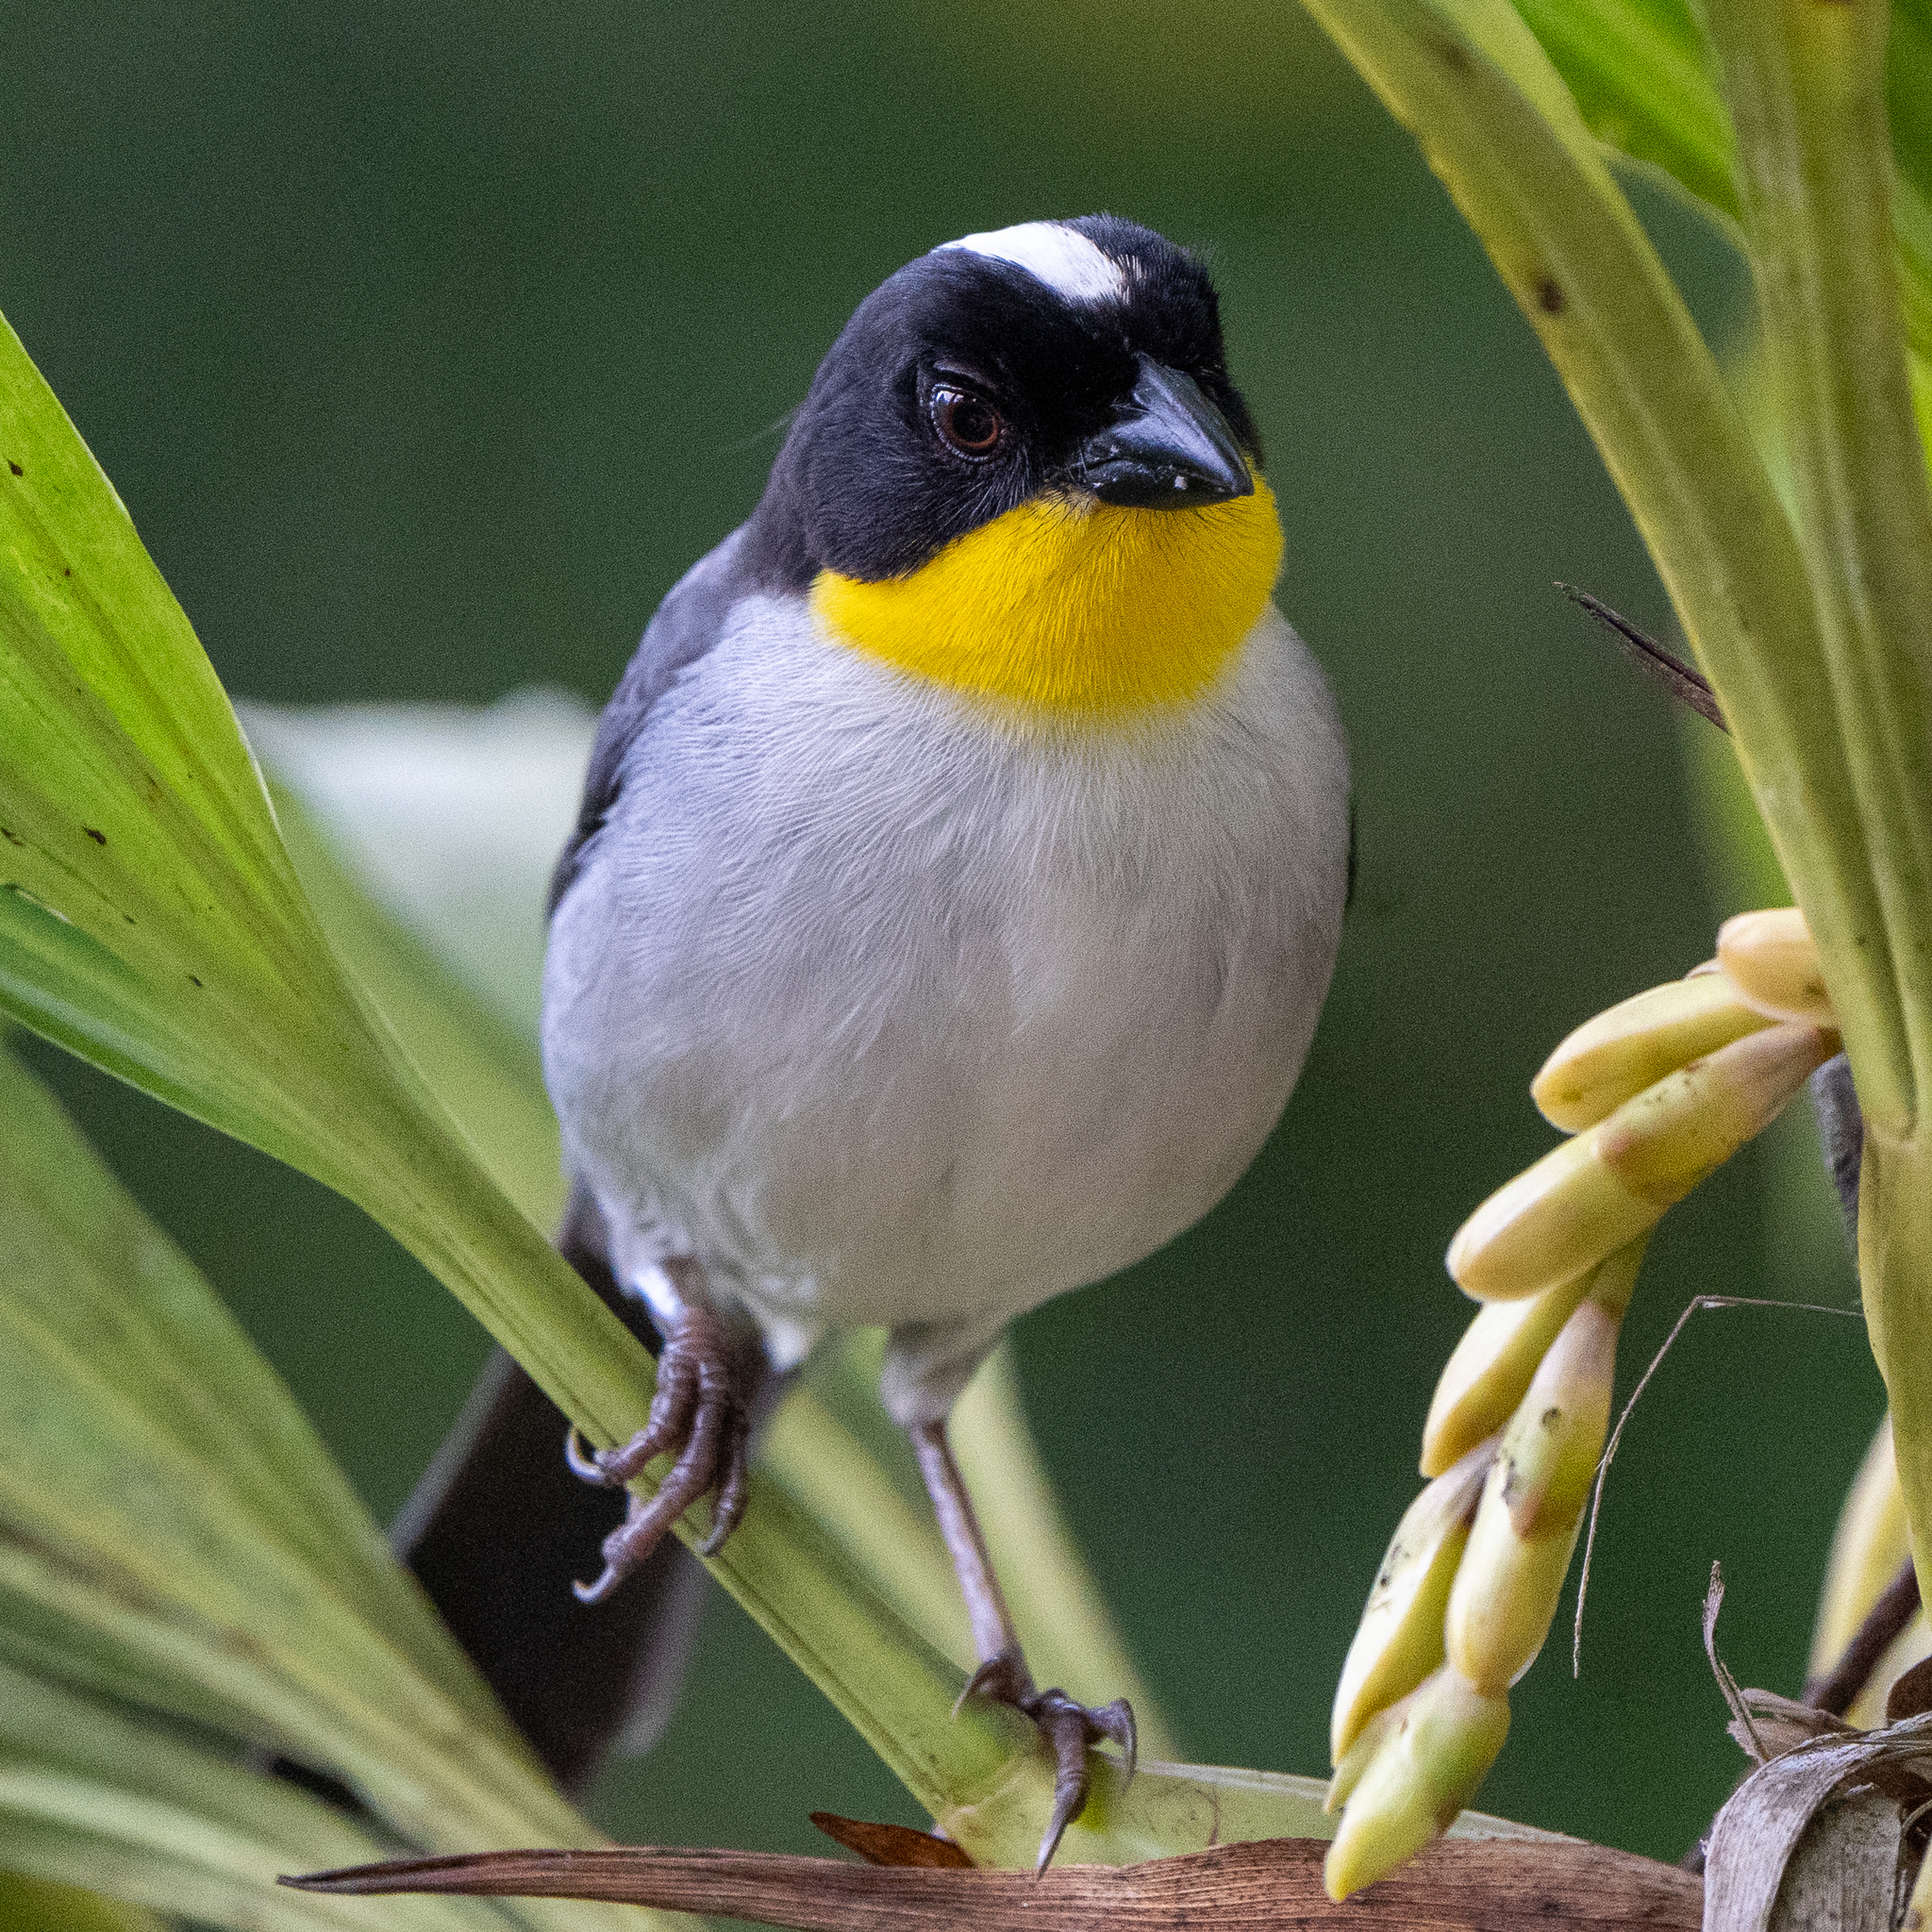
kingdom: Animalia
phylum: Chordata
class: Aves
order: Passeriformes
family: Passerellidae
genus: Atlapetes
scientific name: Atlapetes albinucha
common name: White-naped brush-finch
